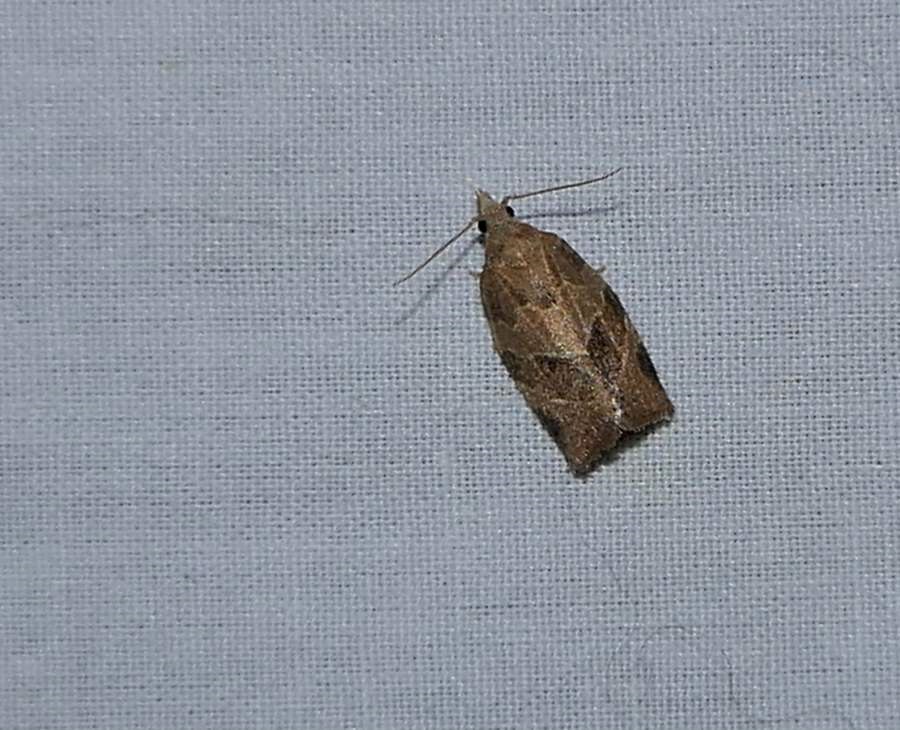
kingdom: Animalia
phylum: Arthropoda
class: Insecta
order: Lepidoptera
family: Tortricidae
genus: Pandemis
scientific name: Pandemis limitata
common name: Three-lined leafroller moth
